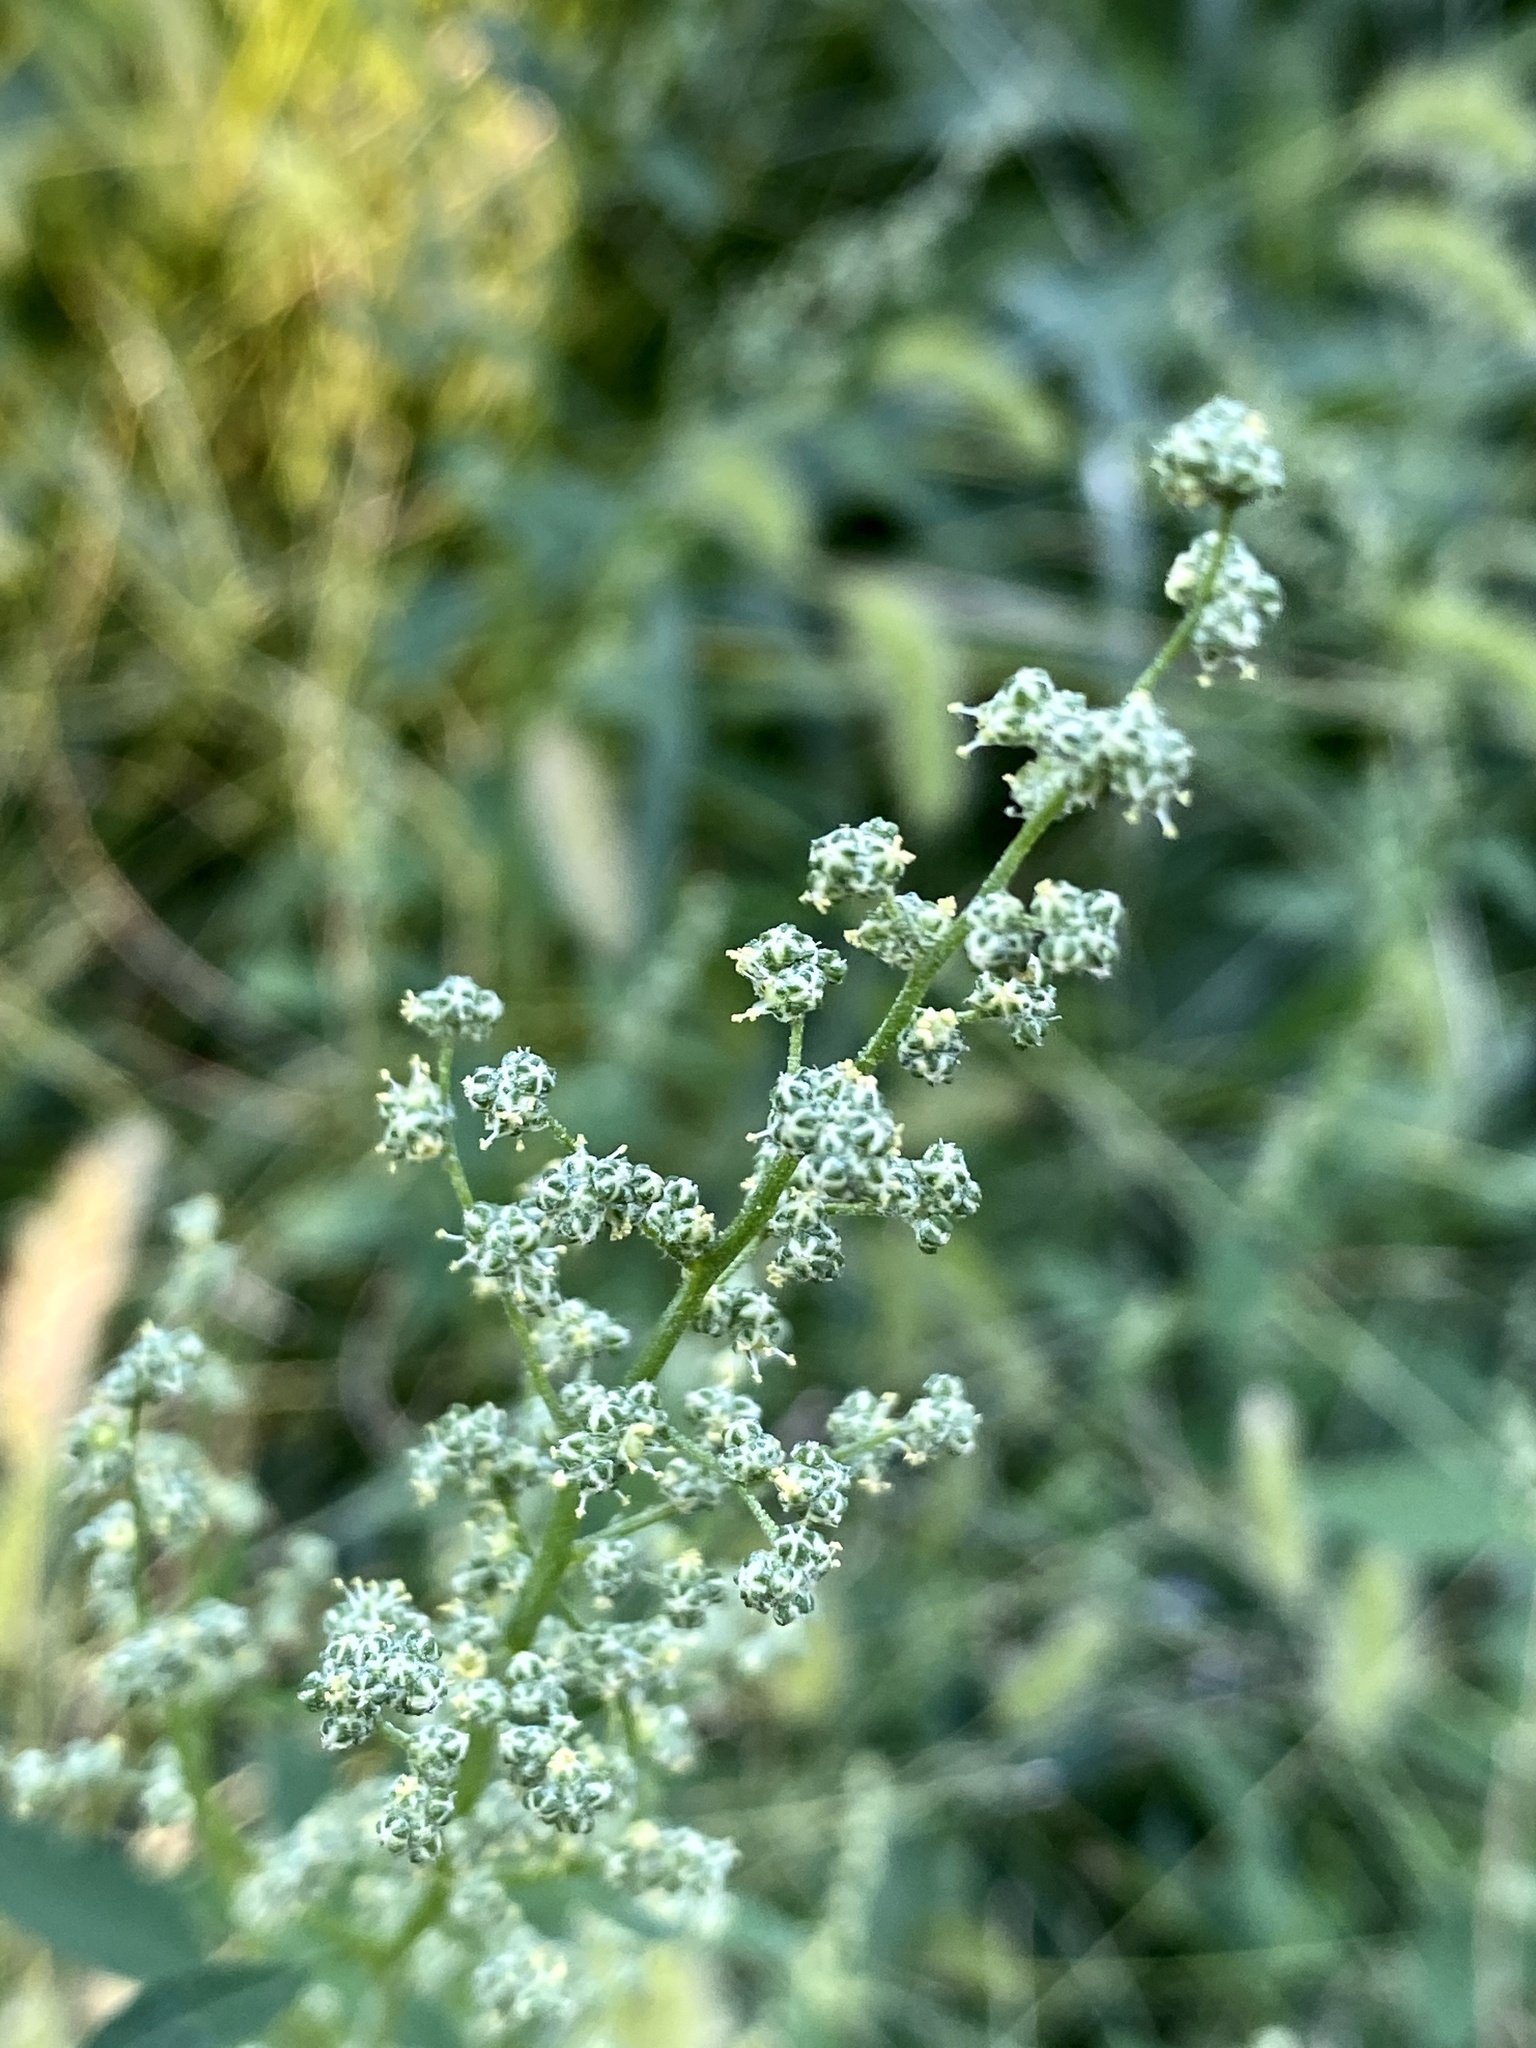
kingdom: Plantae
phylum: Tracheophyta
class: Magnoliopsida
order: Caryophyllales
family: Amaranthaceae
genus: Chenopodium
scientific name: Chenopodium album
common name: Fat-hen
